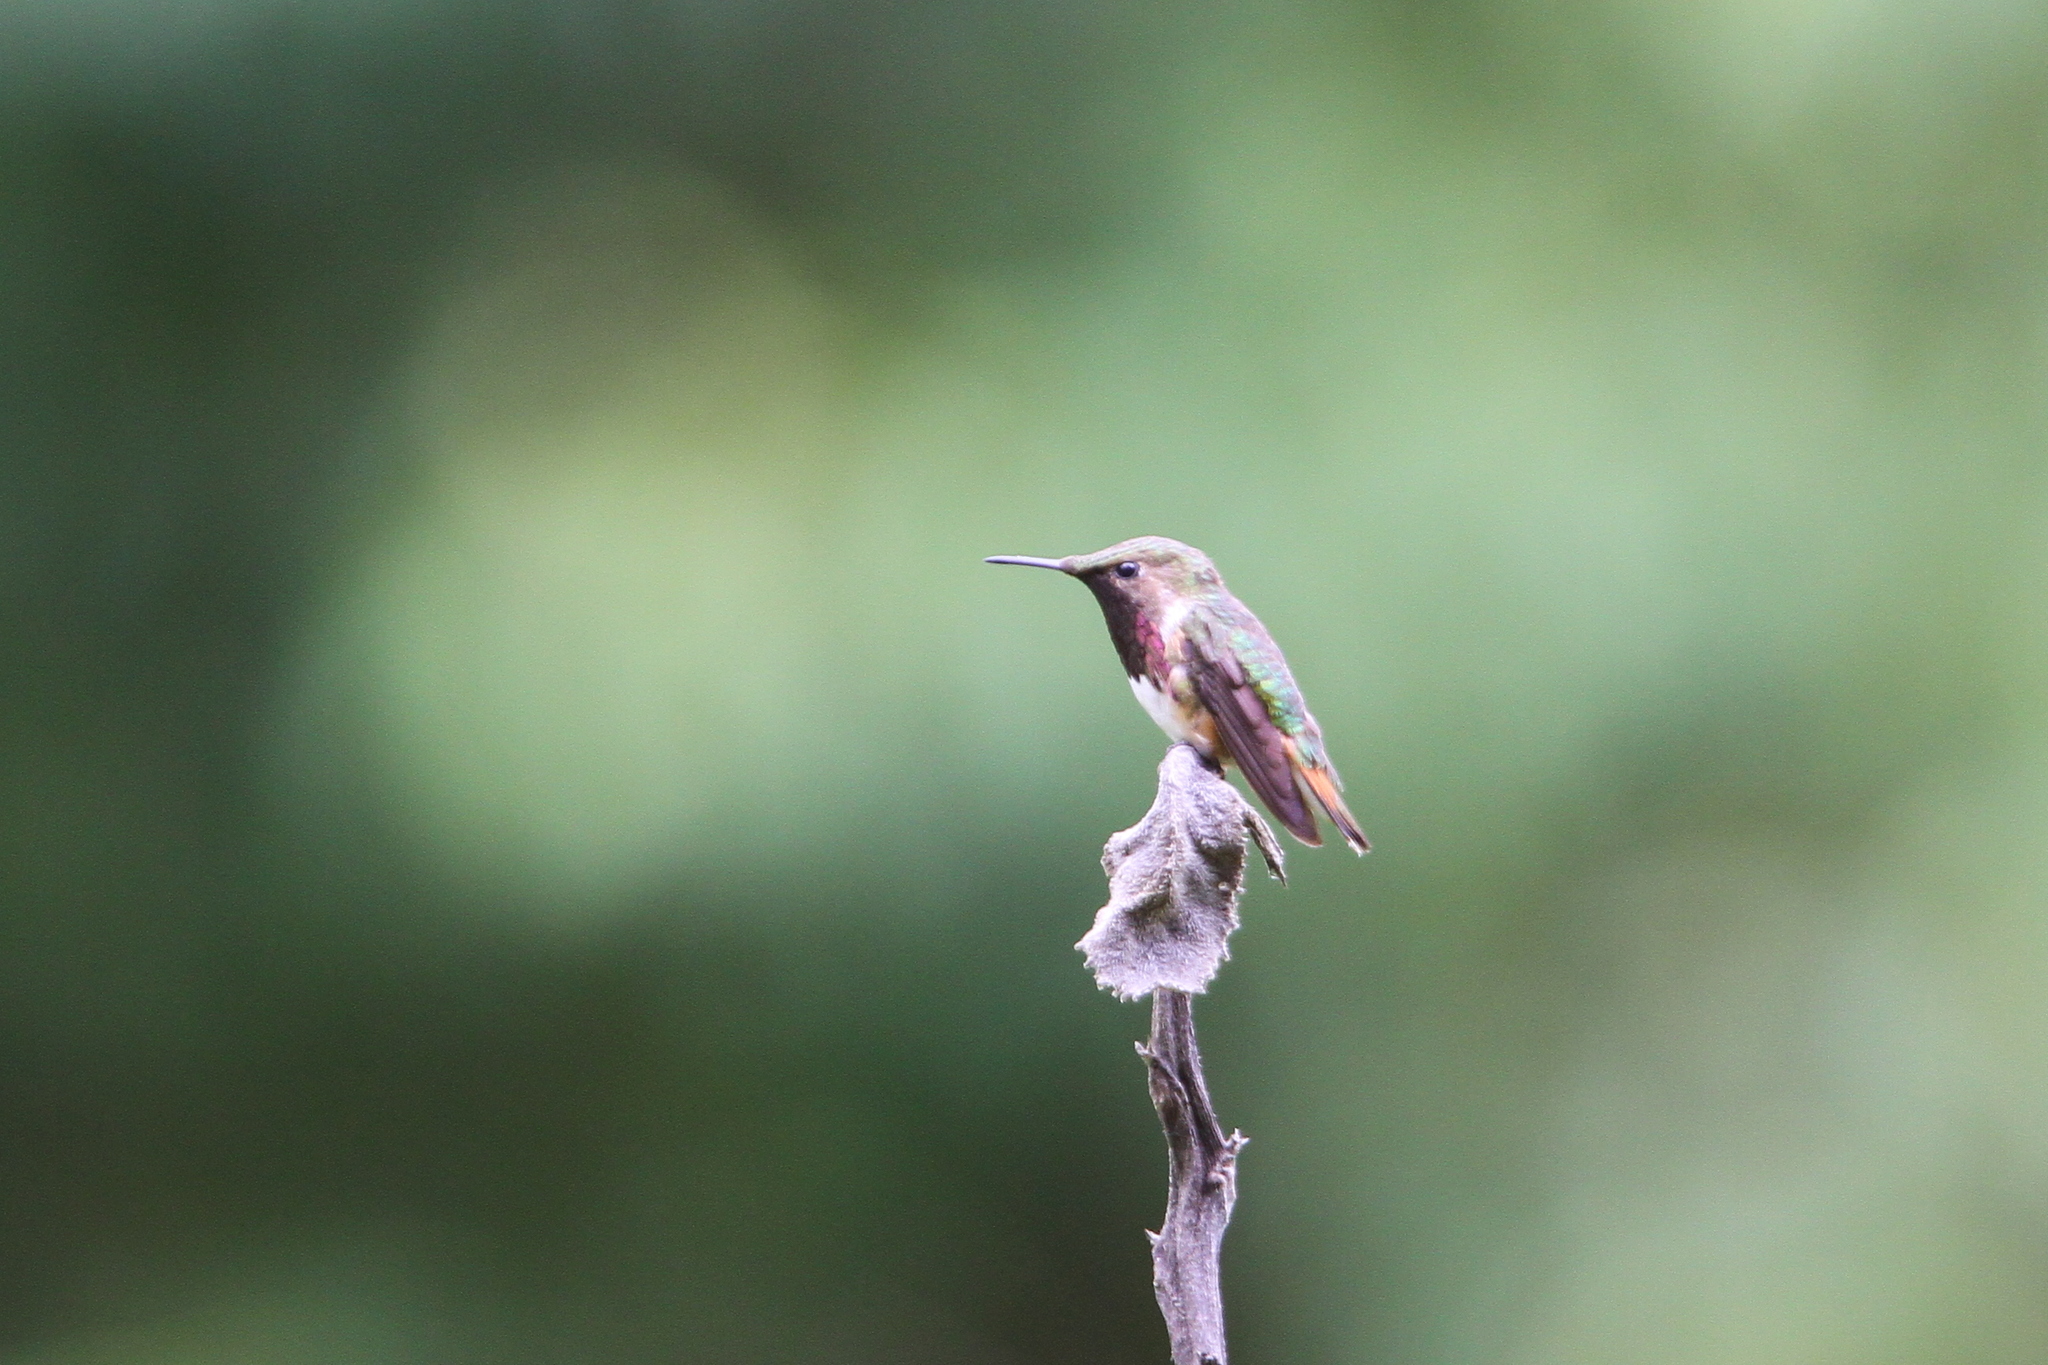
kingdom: Animalia
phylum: Chordata
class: Aves
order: Apodiformes
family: Trochilidae
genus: Selasphorus
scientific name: Selasphorus ellioti
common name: Wine-throated hummingbird
